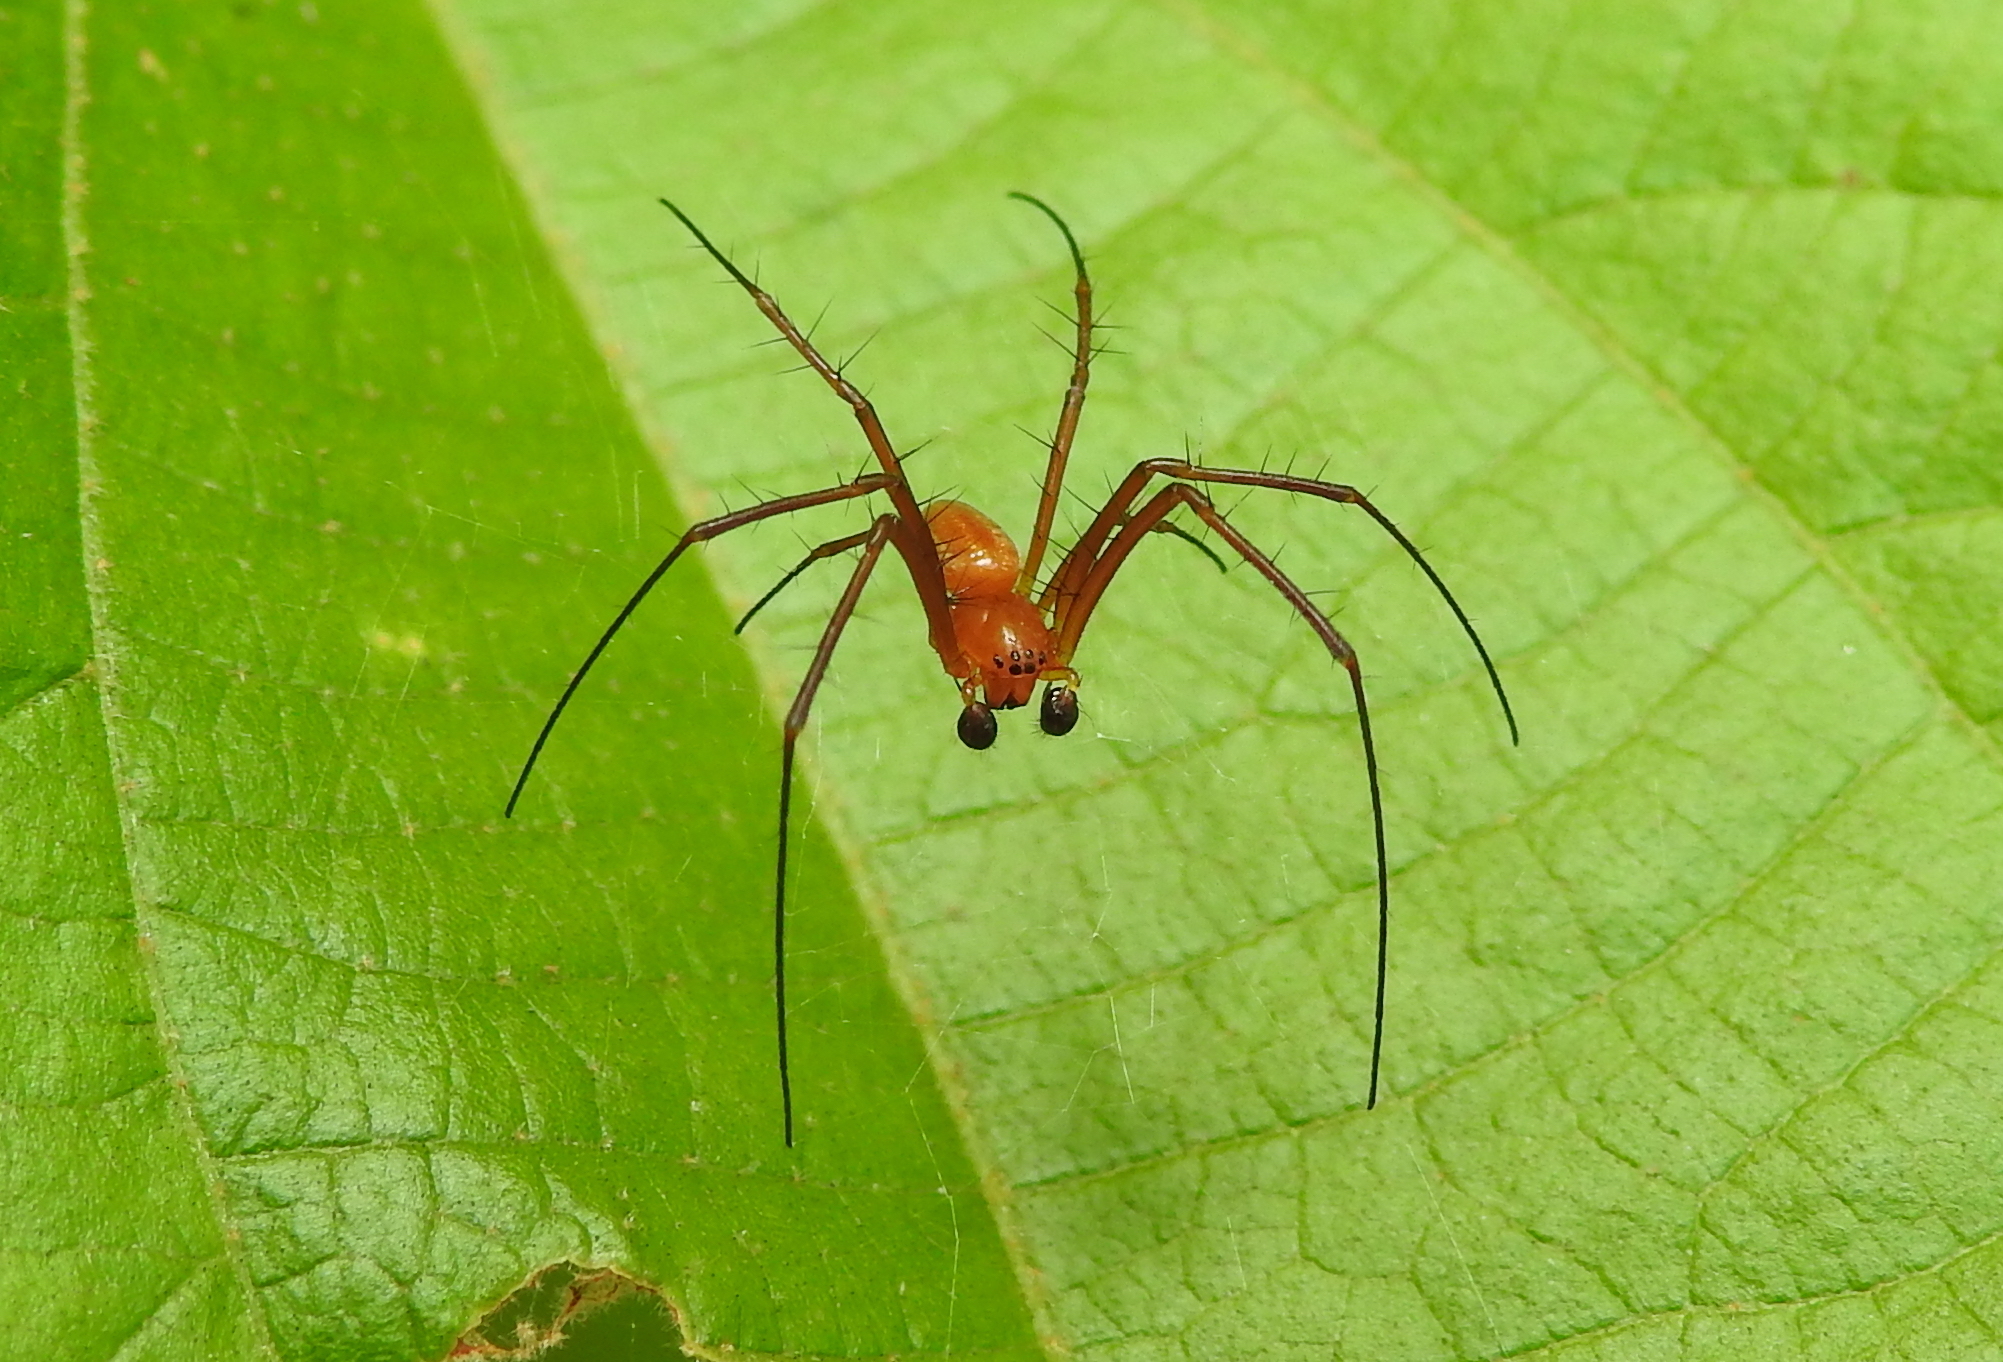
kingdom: Animalia
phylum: Arthropoda
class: Arachnida
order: Araneae
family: Araneidae
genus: Nephila
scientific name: Nephila pilipes
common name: Giant golden orb weaver
